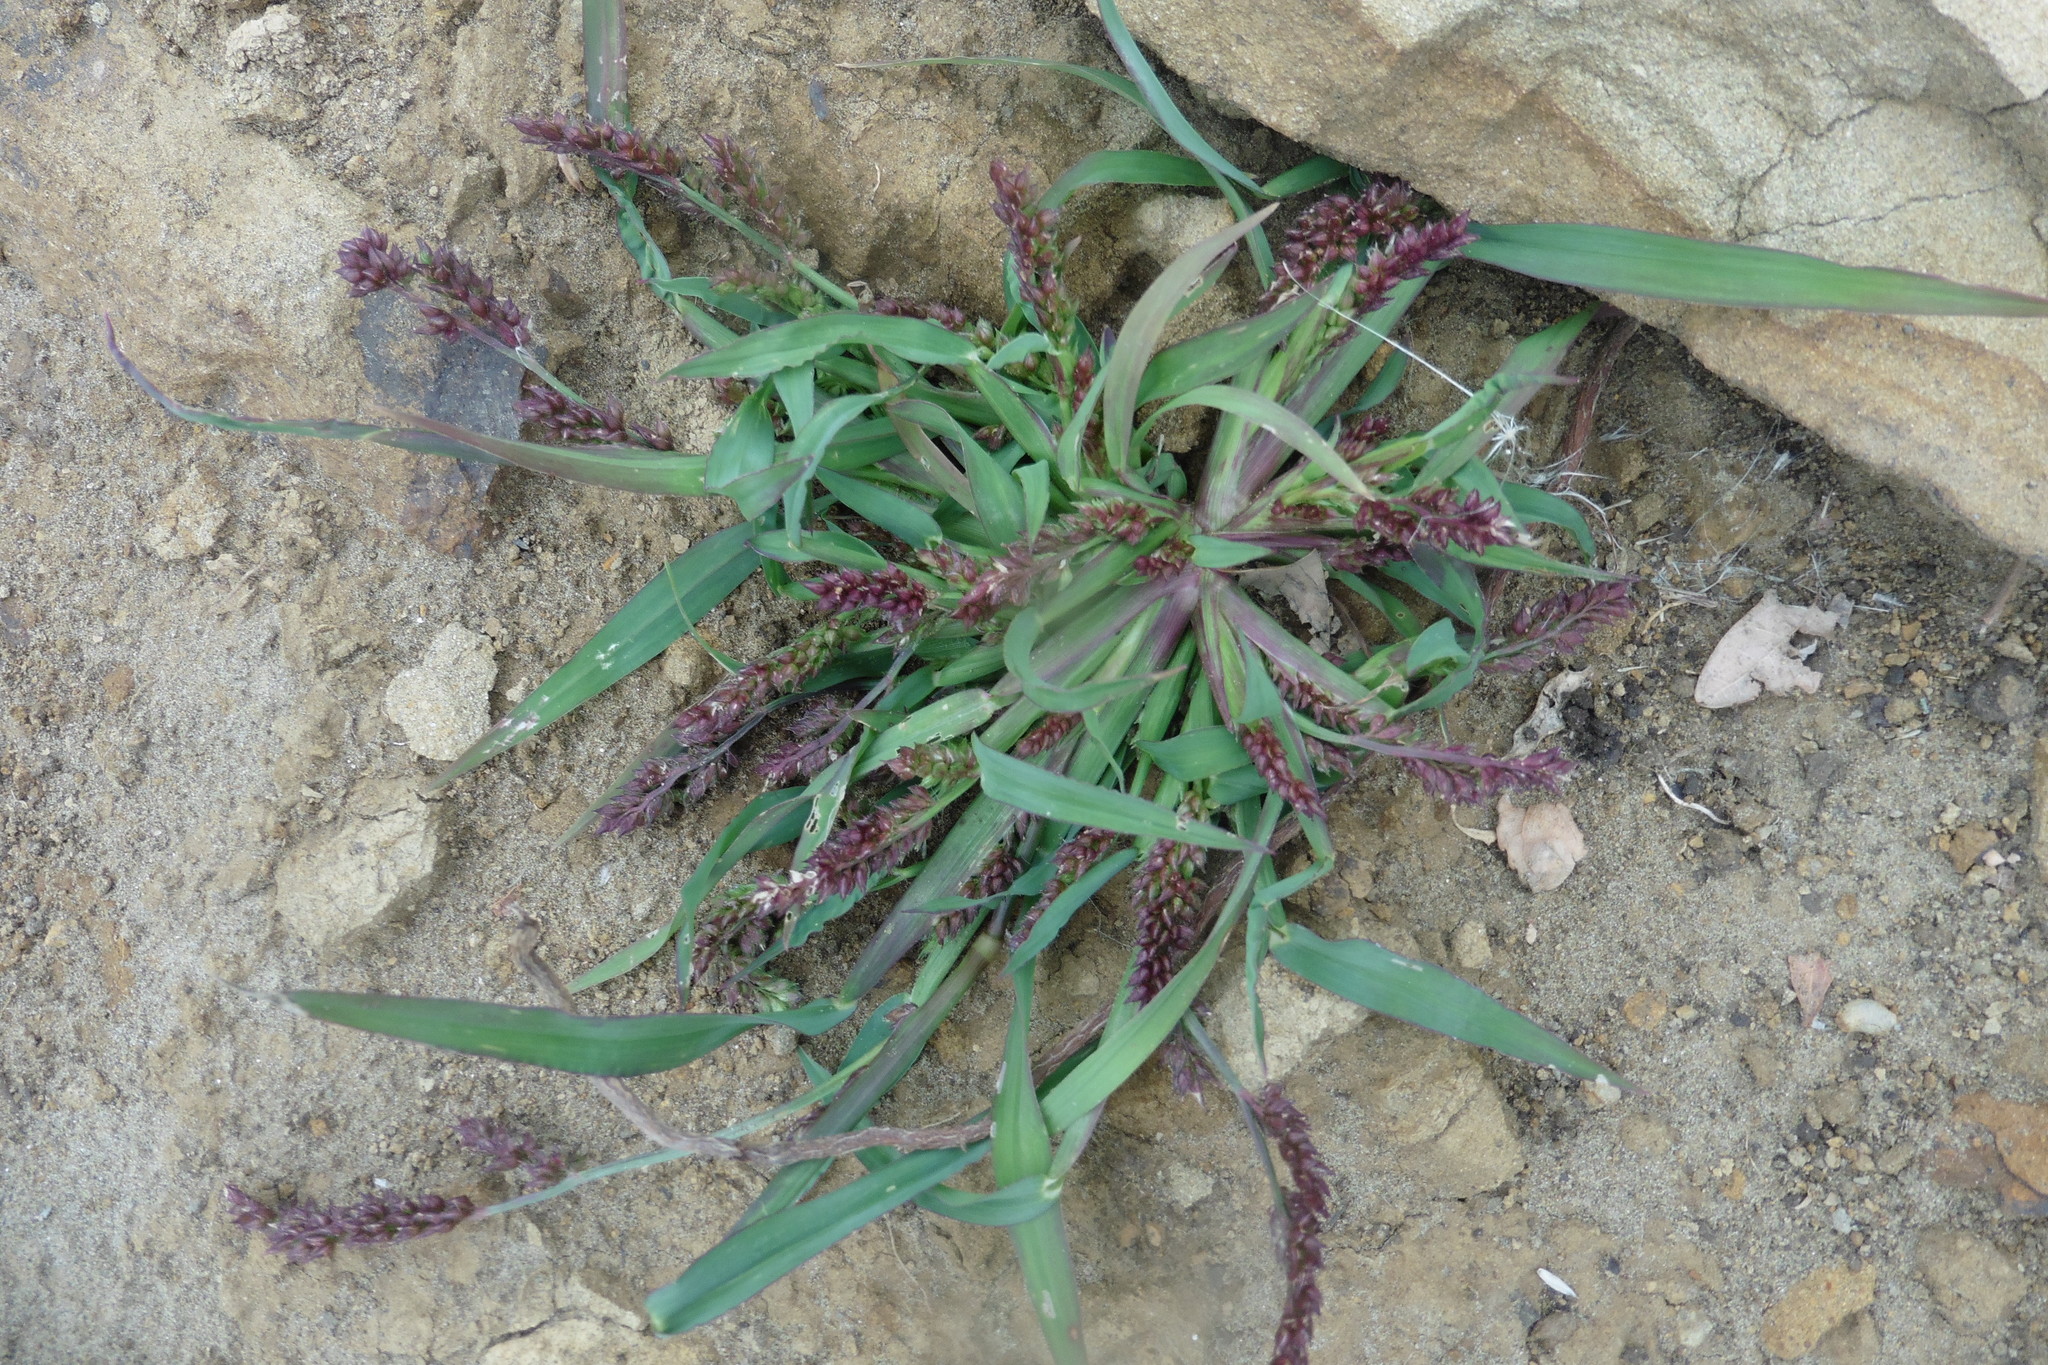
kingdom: Plantae
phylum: Tracheophyta
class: Liliopsida
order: Poales
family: Poaceae
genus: Echinochloa
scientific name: Echinochloa crus-galli
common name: Cockspur
